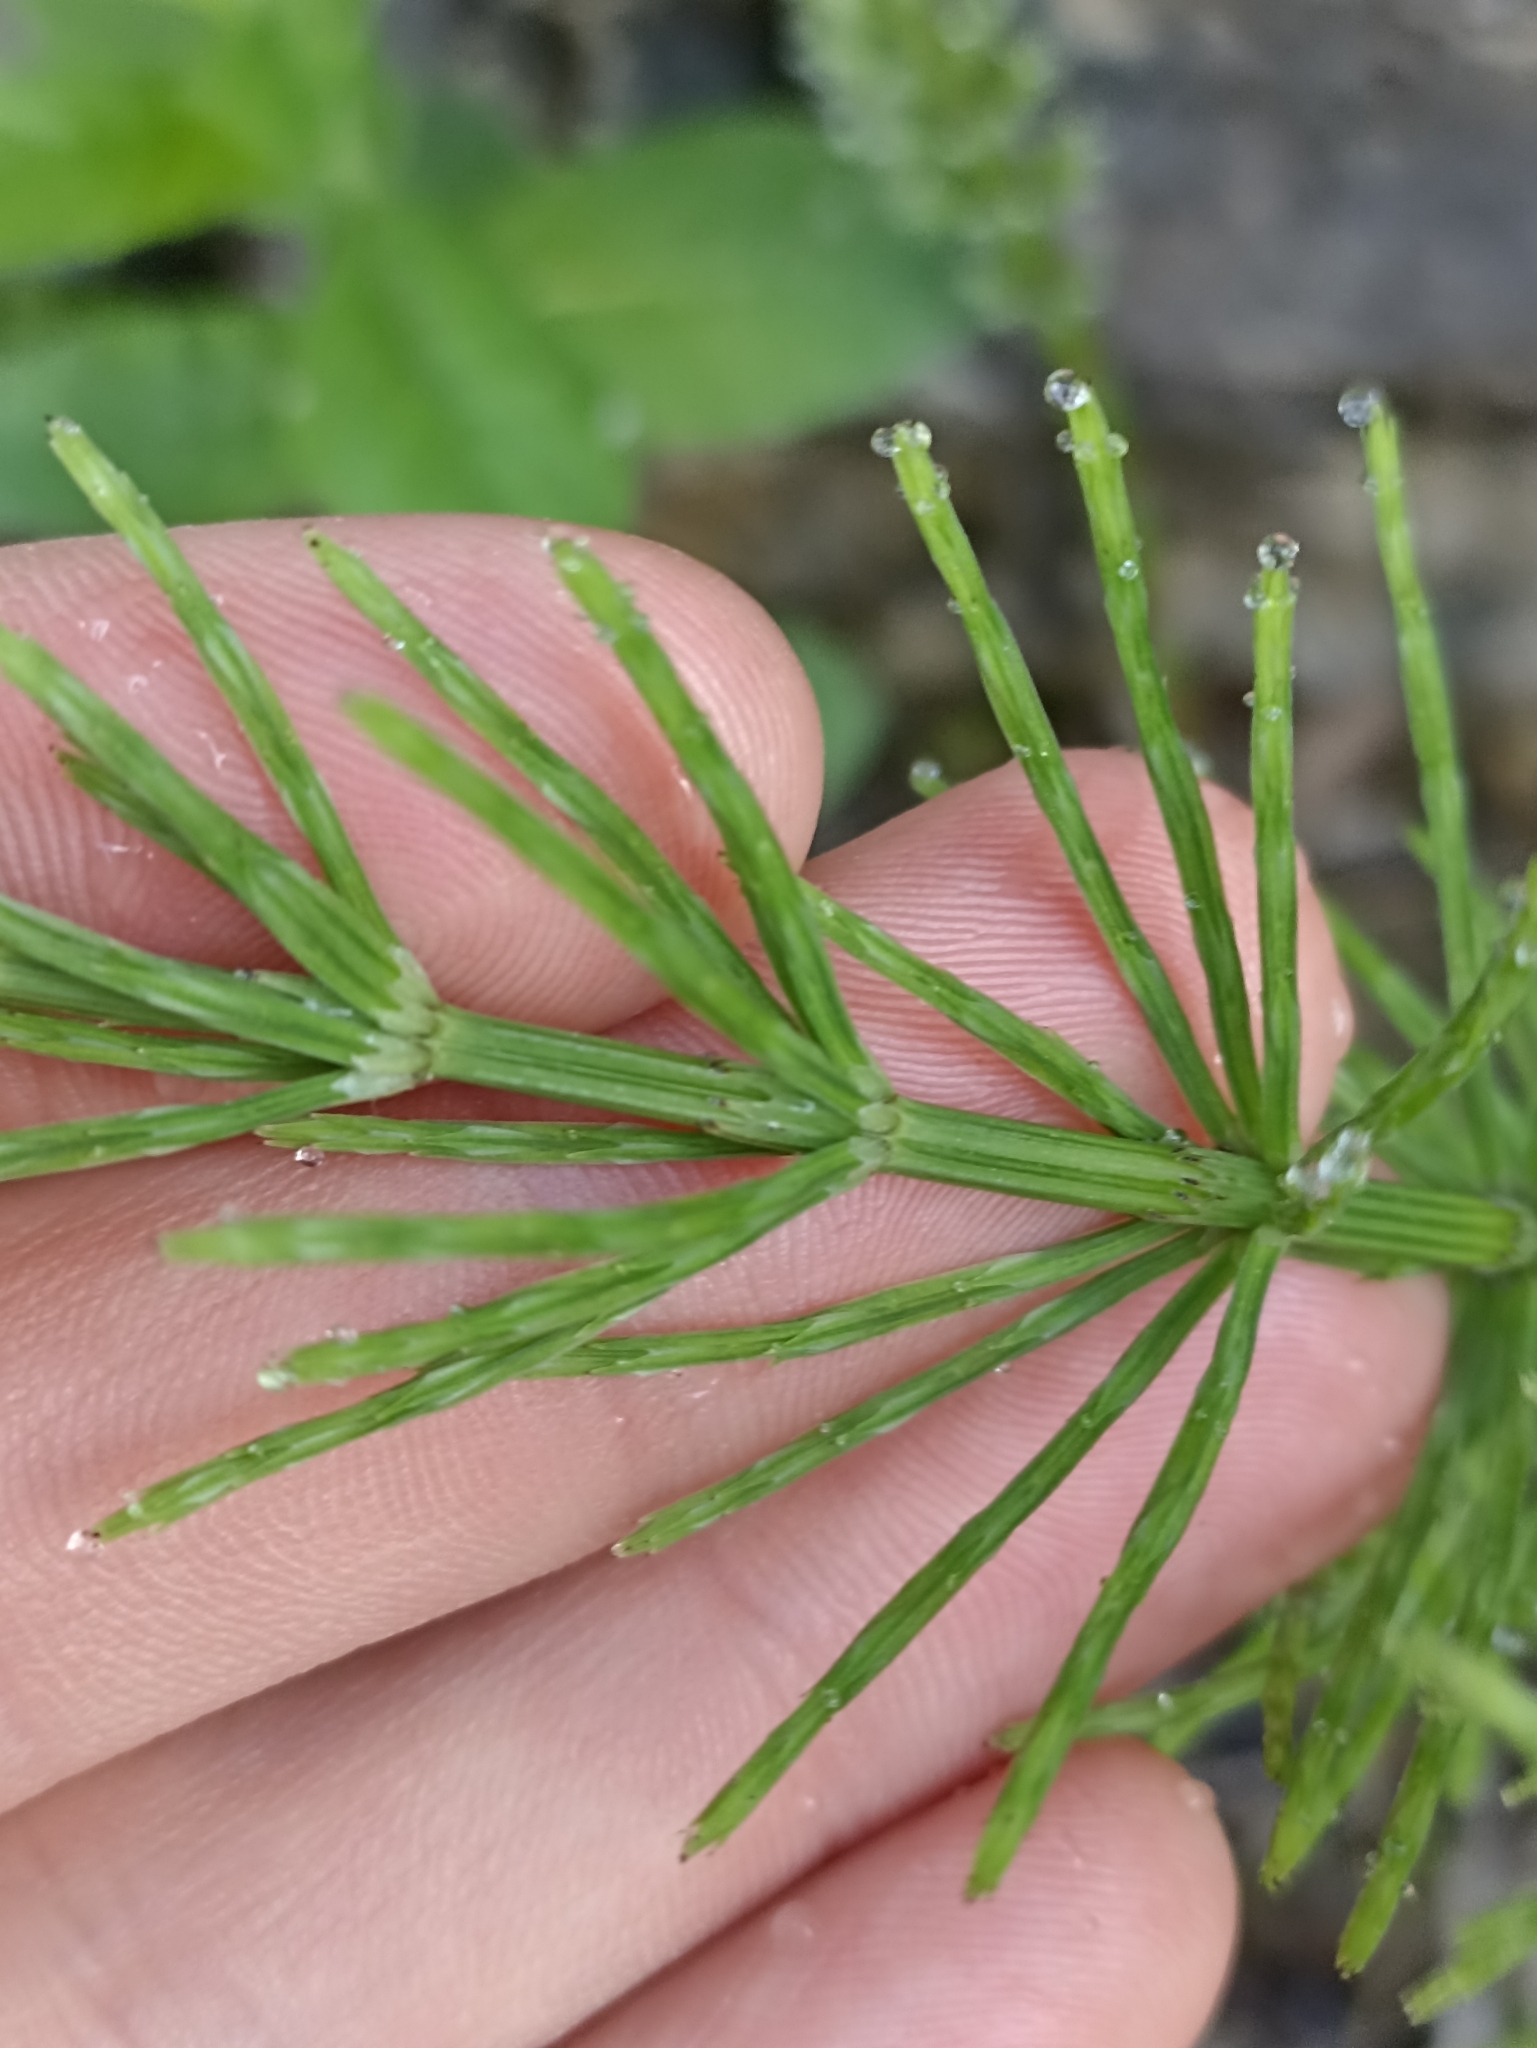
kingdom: Plantae
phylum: Tracheophyta
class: Polypodiopsida
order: Equisetales
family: Equisetaceae
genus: Equisetum
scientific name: Equisetum arvense
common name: Field horsetail
